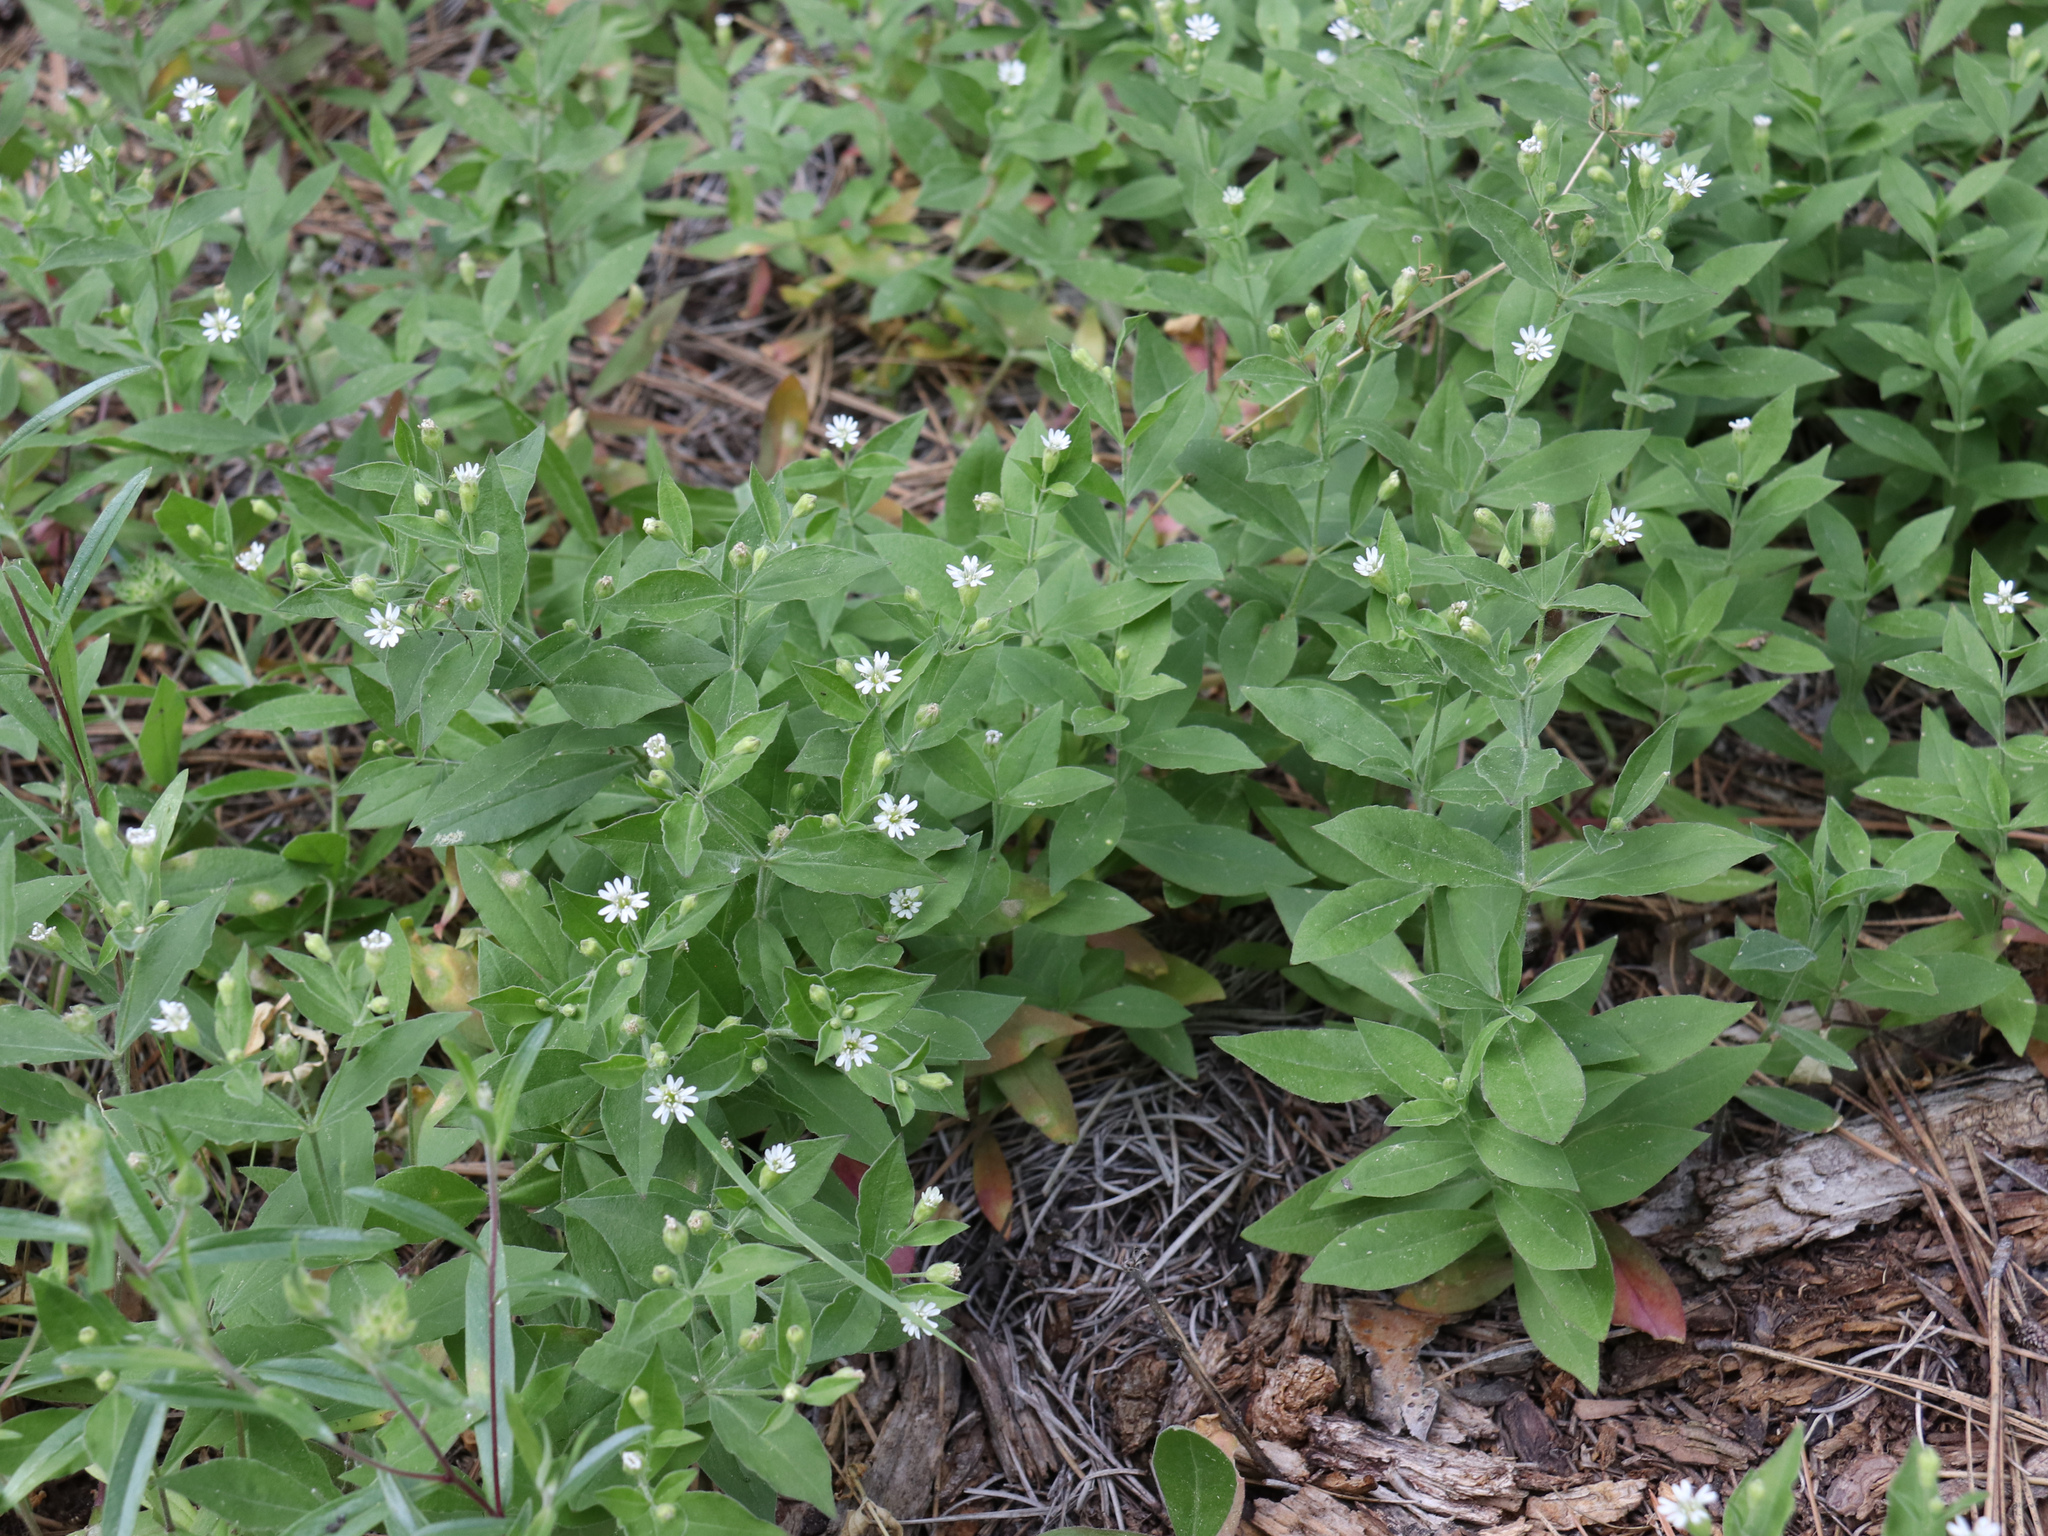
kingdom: Plantae
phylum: Tracheophyta
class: Magnoliopsida
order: Caryophyllales
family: Caryophyllaceae
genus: Silene
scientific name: Silene menziesii
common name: Menzies's catchfly
